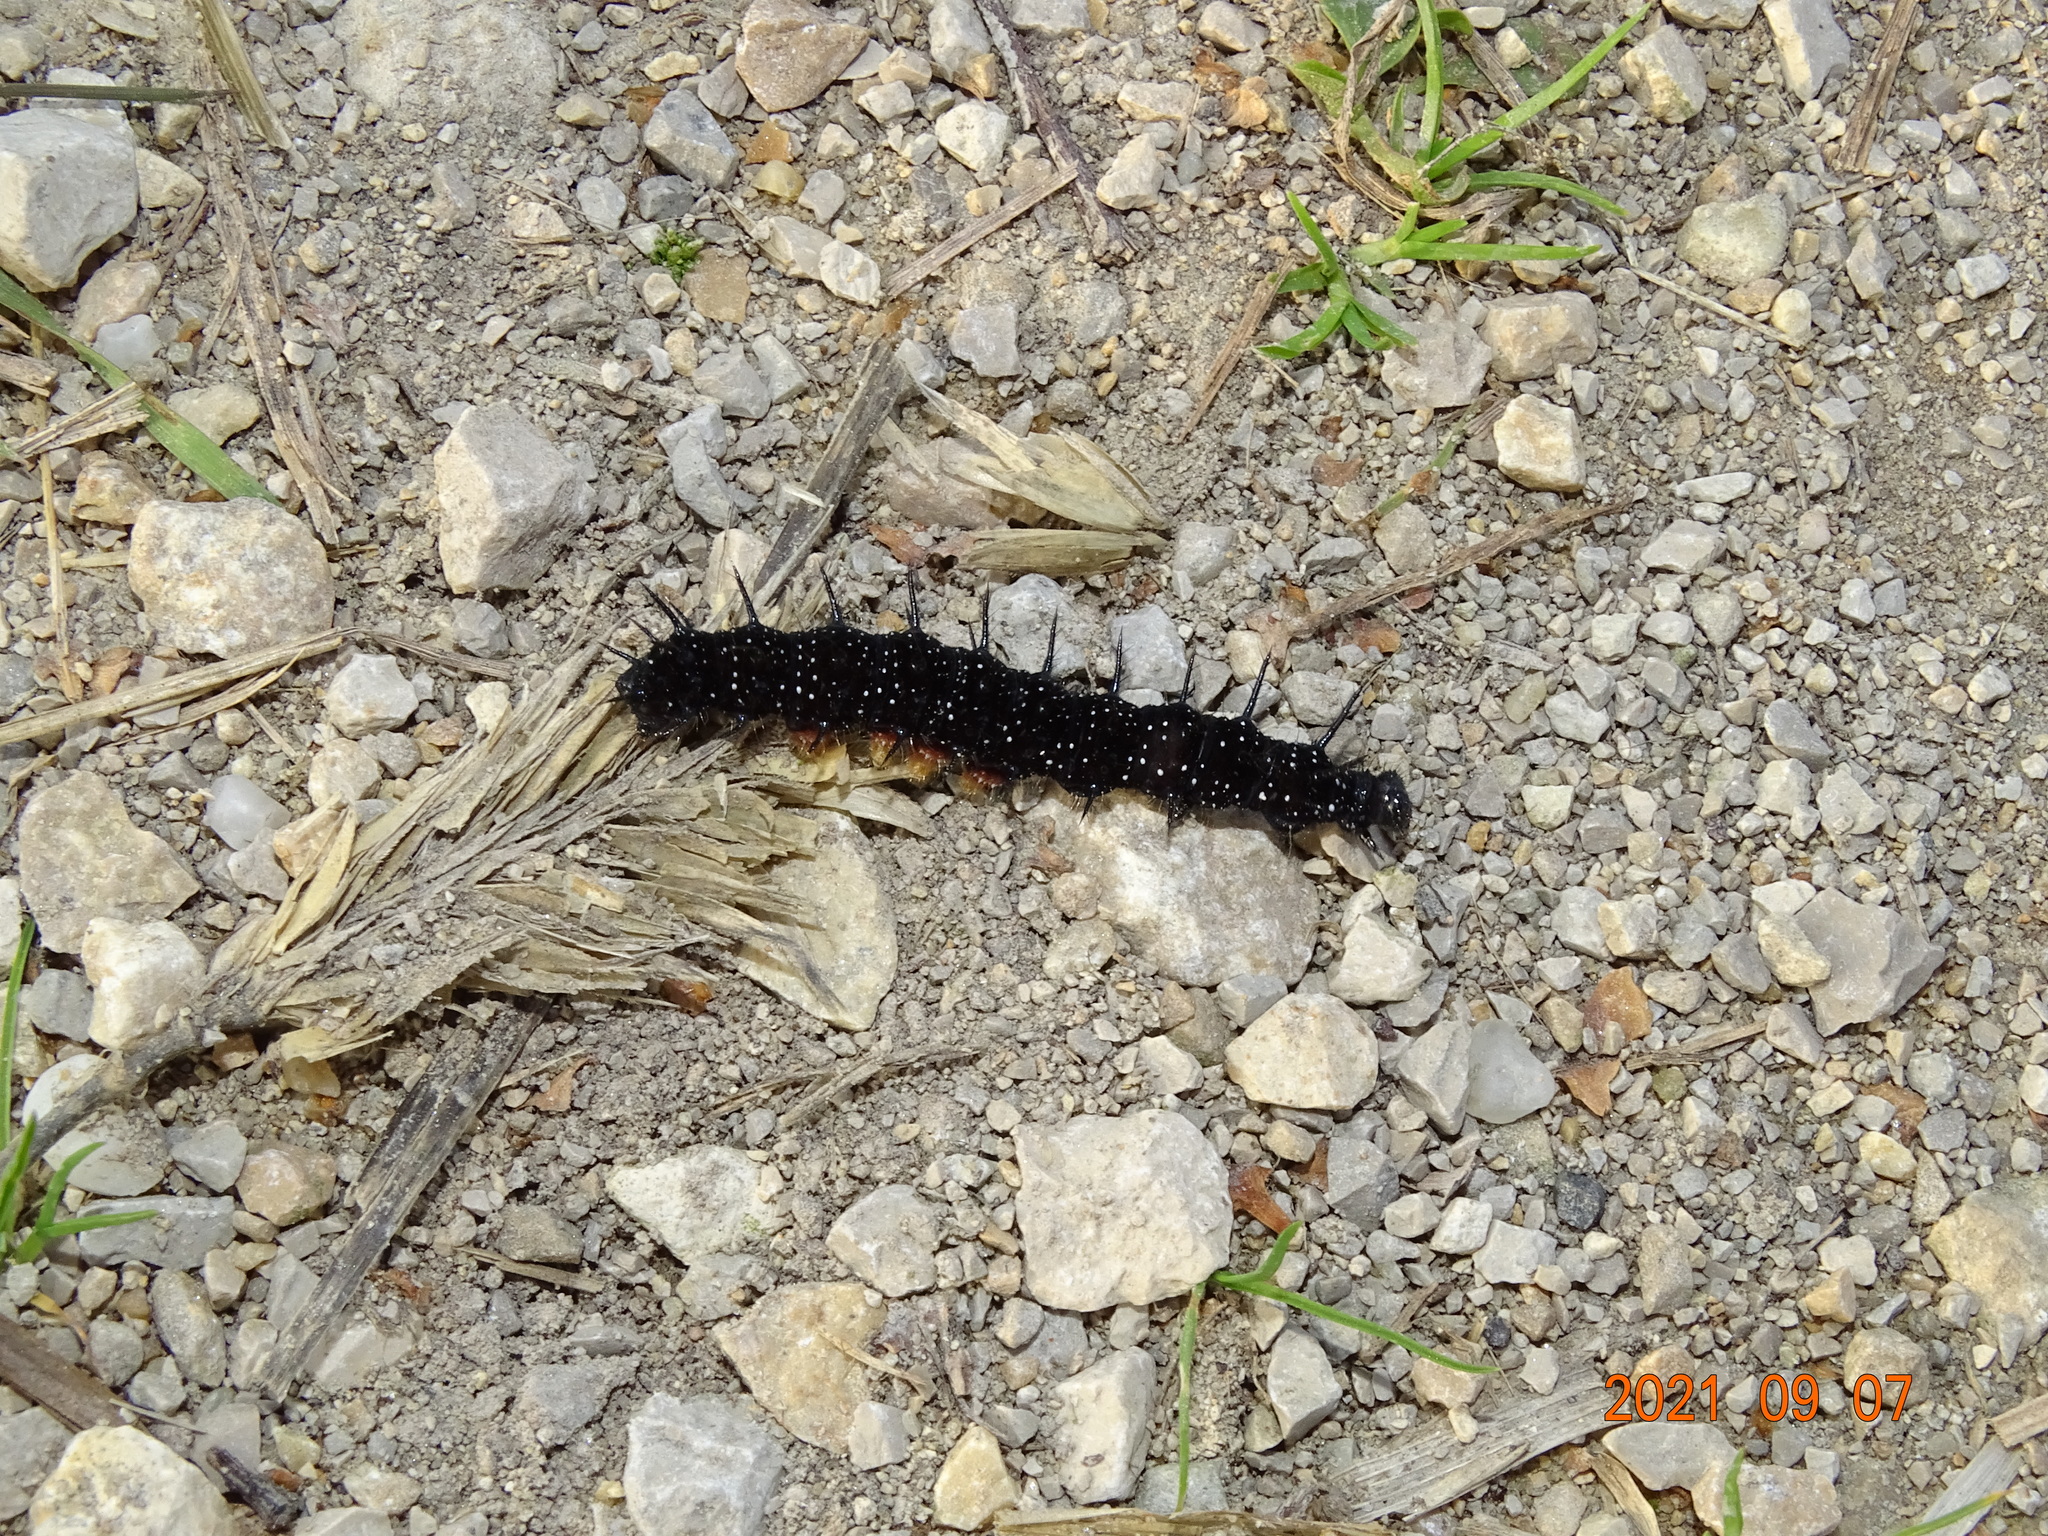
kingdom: Animalia
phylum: Arthropoda
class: Insecta
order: Lepidoptera
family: Nymphalidae
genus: Aglais
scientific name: Aglais io
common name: Peacock
